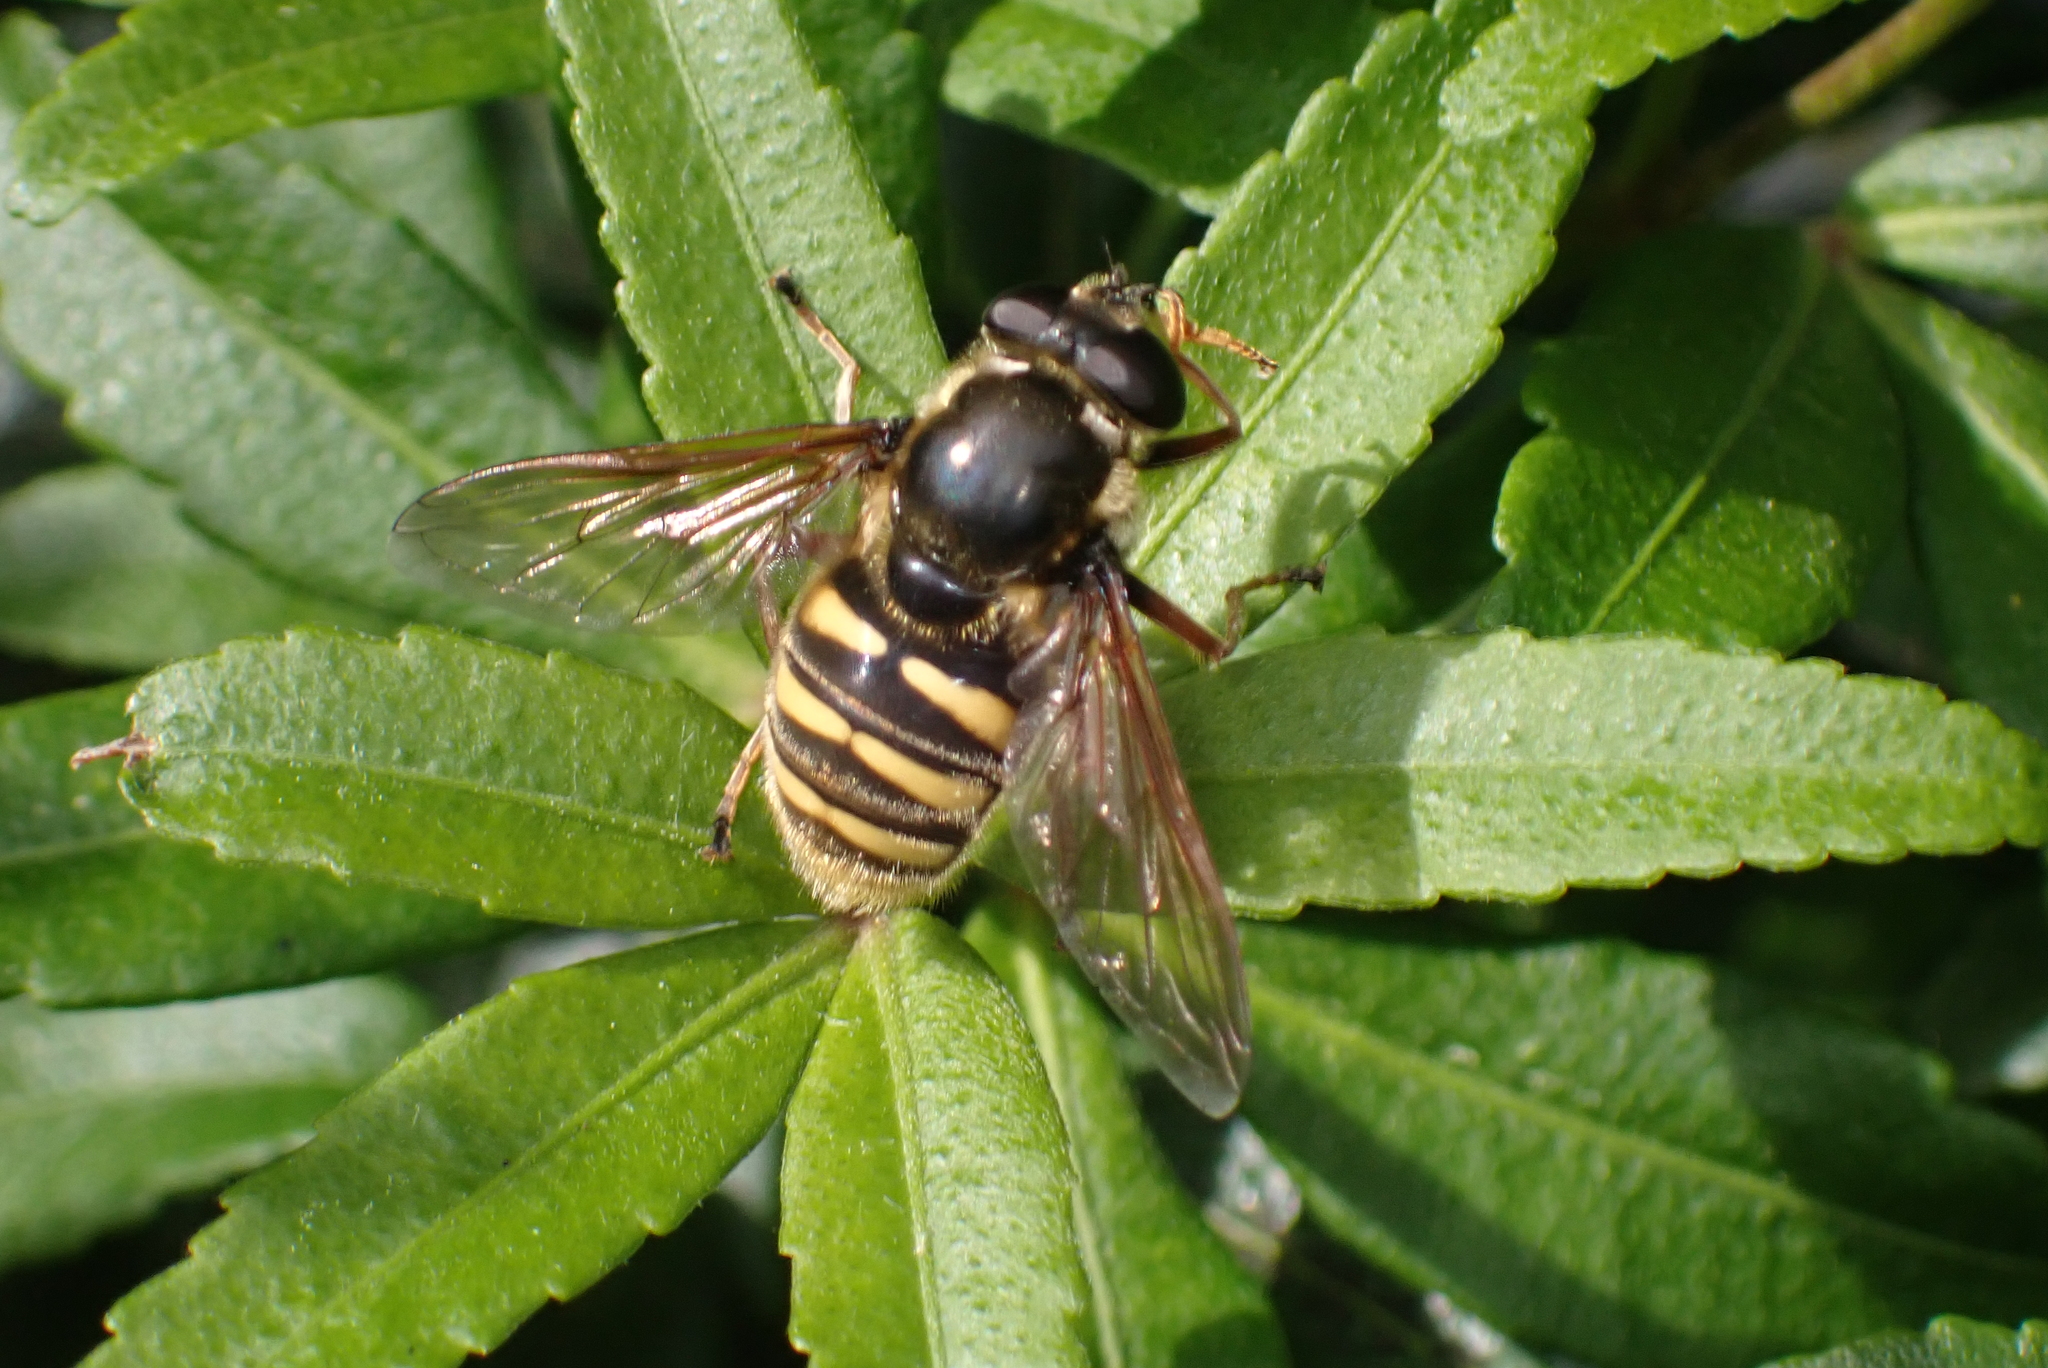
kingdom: Animalia
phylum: Arthropoda
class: Insecta
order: Diptera
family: Syrphidae
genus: Sericomyia
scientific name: Sericomyia silentis
